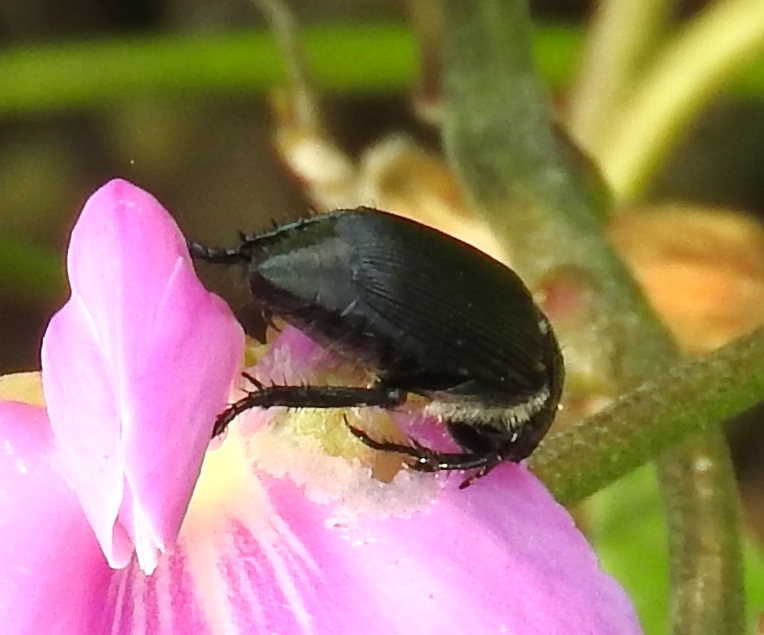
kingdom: Animalia
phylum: Arthropoda
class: Insecta
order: Coleoptera
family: Scarabaeidae
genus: Strigoderma
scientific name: Strigoderma
